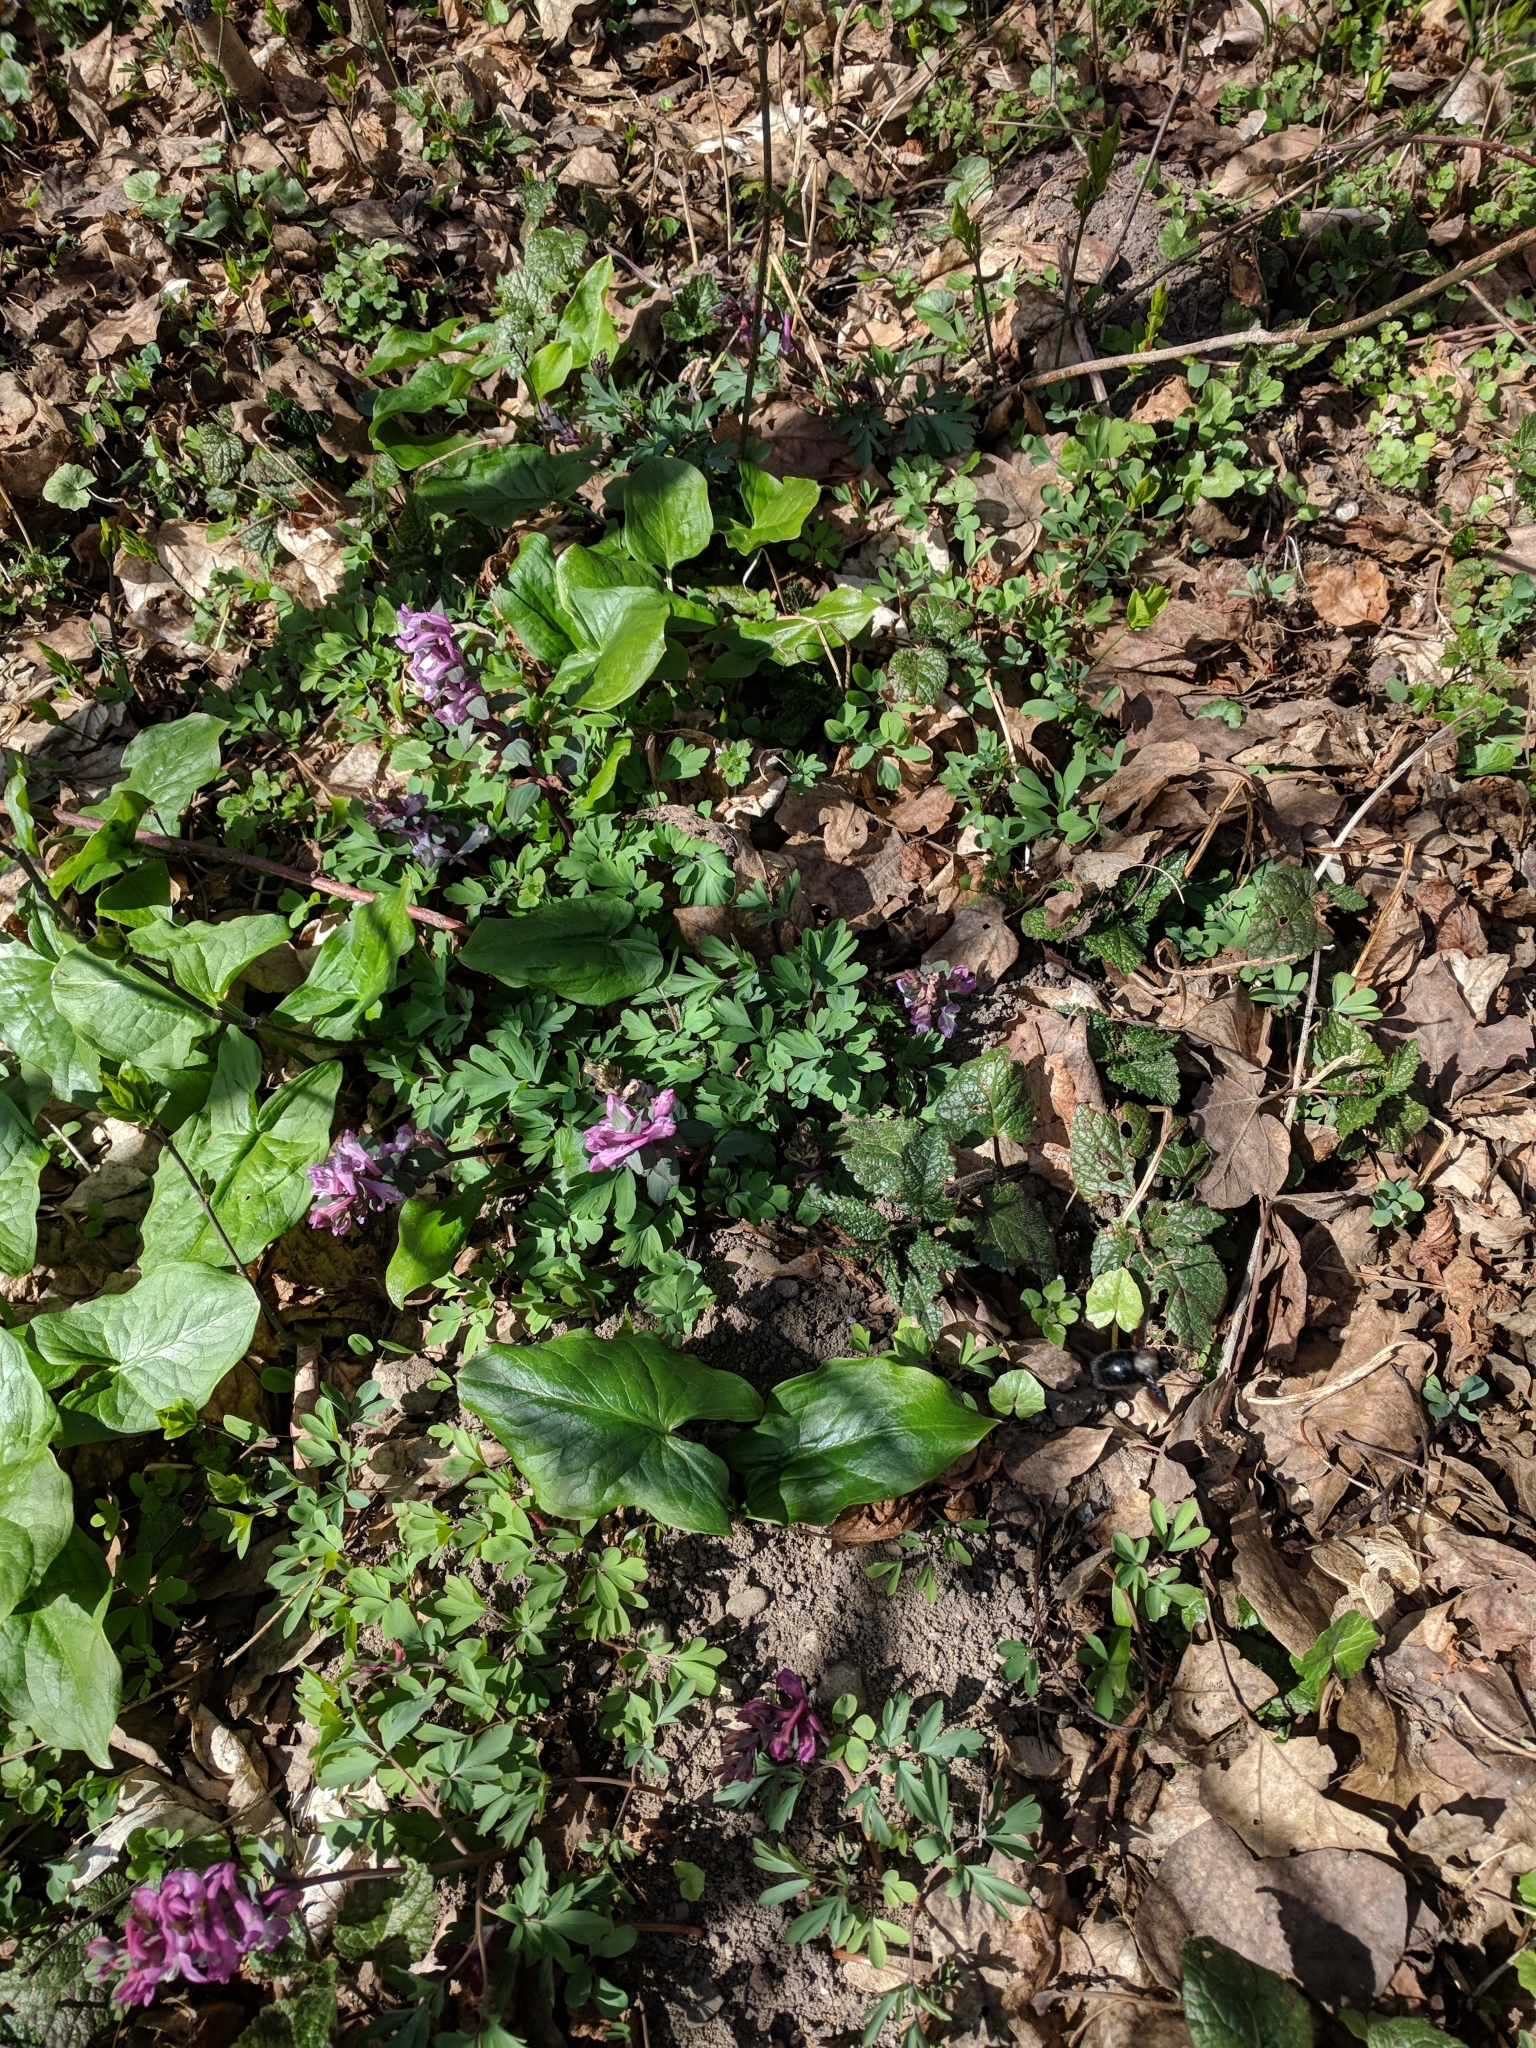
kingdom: Plantae
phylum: Tracheophyta
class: Magnoliopsida
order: Ranunculales
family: Papaveraceae
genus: Corydalis
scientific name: Corydalis cava
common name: Hollowroot
